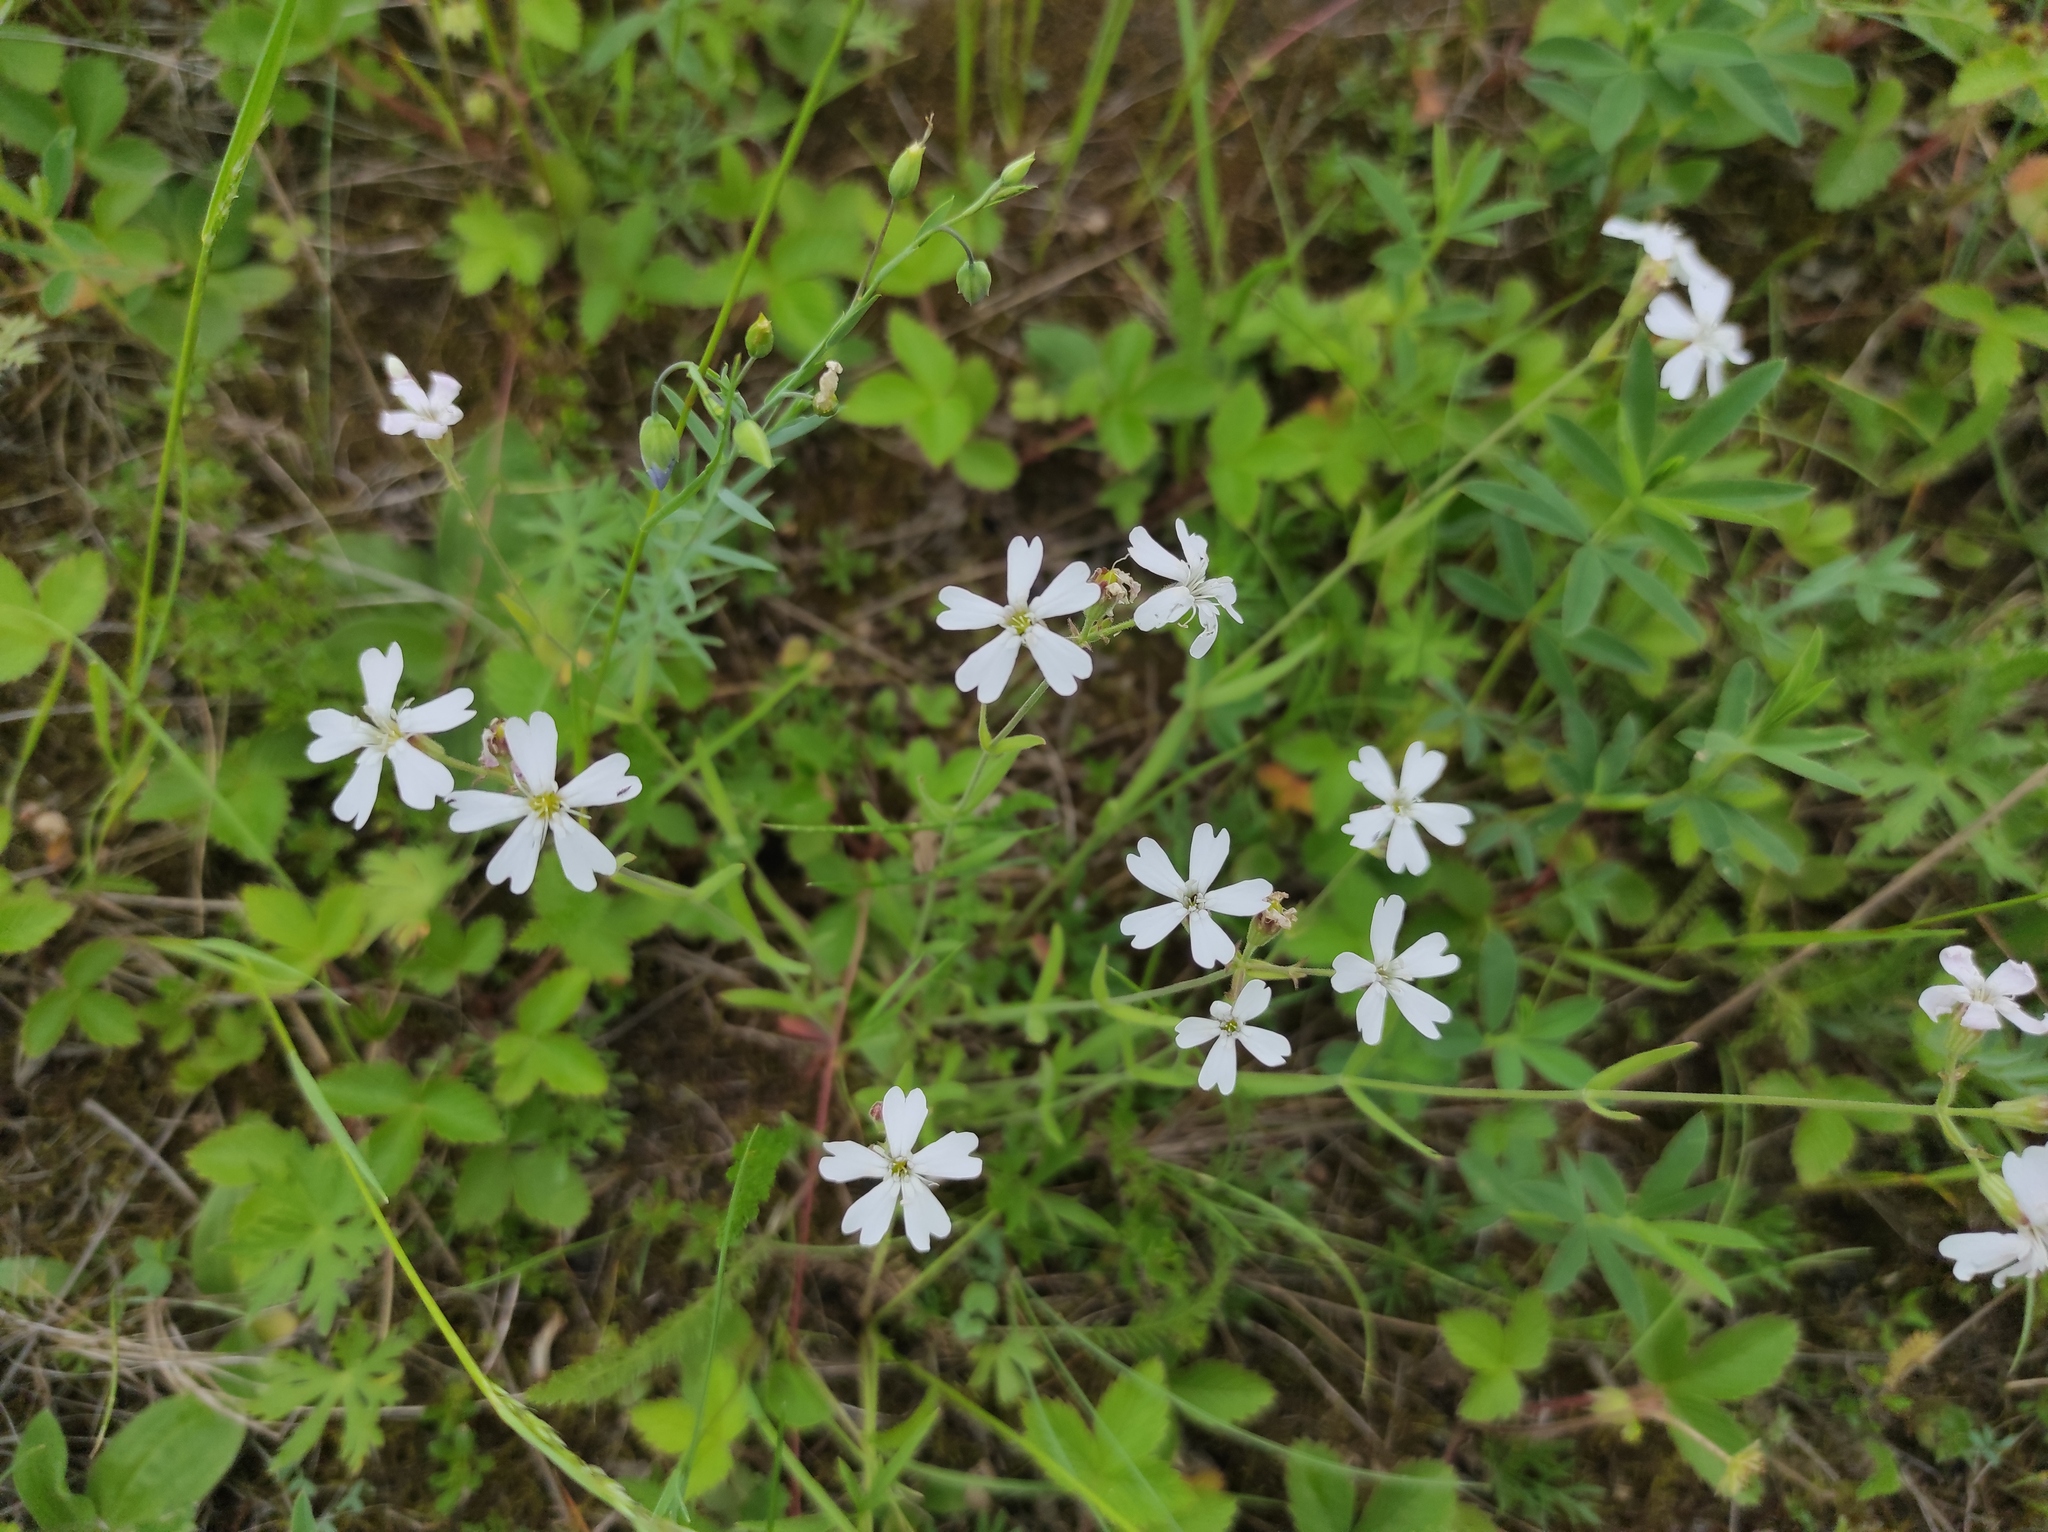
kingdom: Plantae
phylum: Tracheophyta
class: Magnoliopsida
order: Caryophyllales
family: Caryophyllaceae
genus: Silene
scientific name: Silene orientalimongolica
